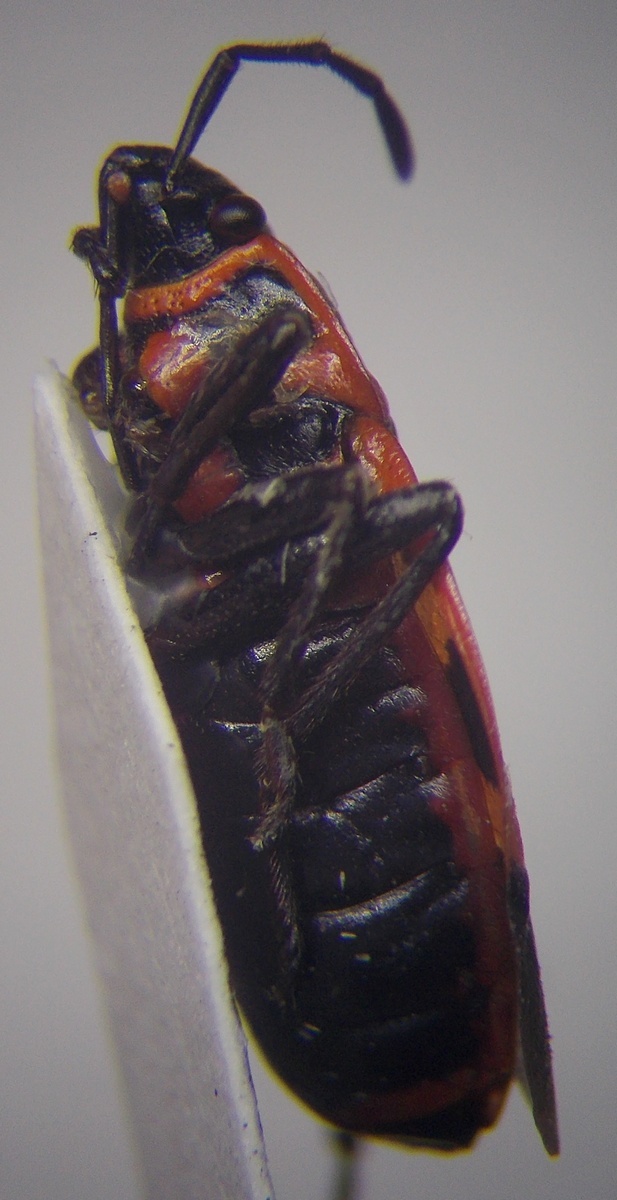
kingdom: Animalia
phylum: Arthropoda
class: Insecta
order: Hemiptera
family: Pyrrhocoridae
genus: Pyrrhocoris
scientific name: Pyrrhocoris apterus
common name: Firebug
